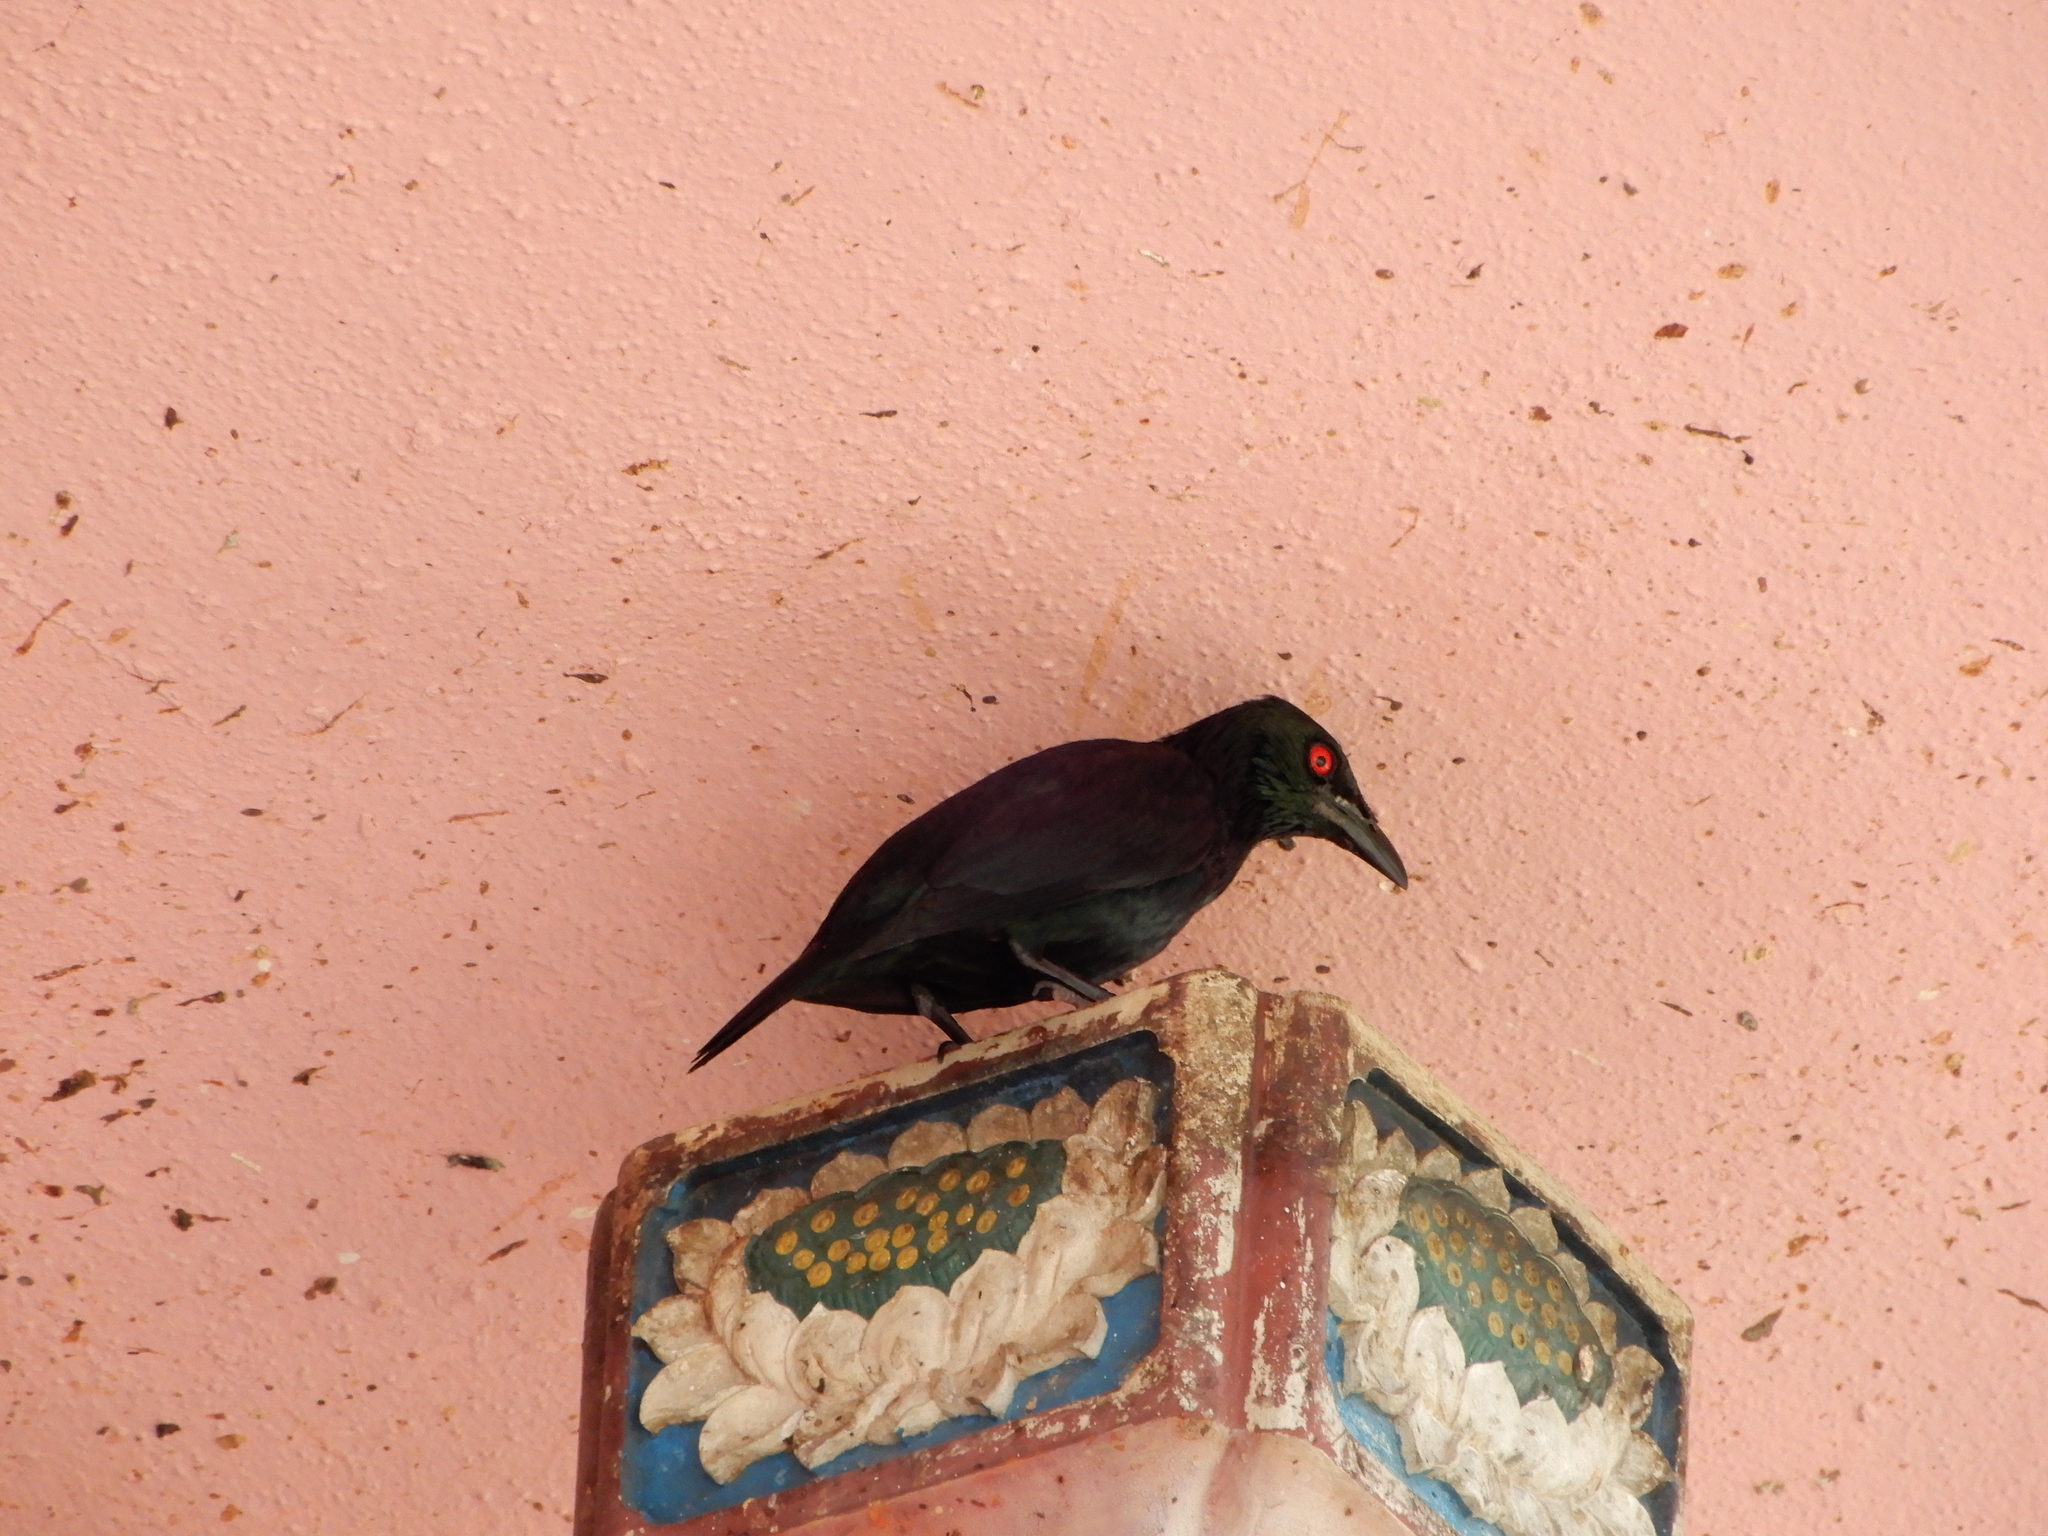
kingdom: Animalia
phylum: Chordata
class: Aves
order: Passeriformes
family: Sturnidae
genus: Aplonis
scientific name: Aplonis panayensis
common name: Asian glossy starling
